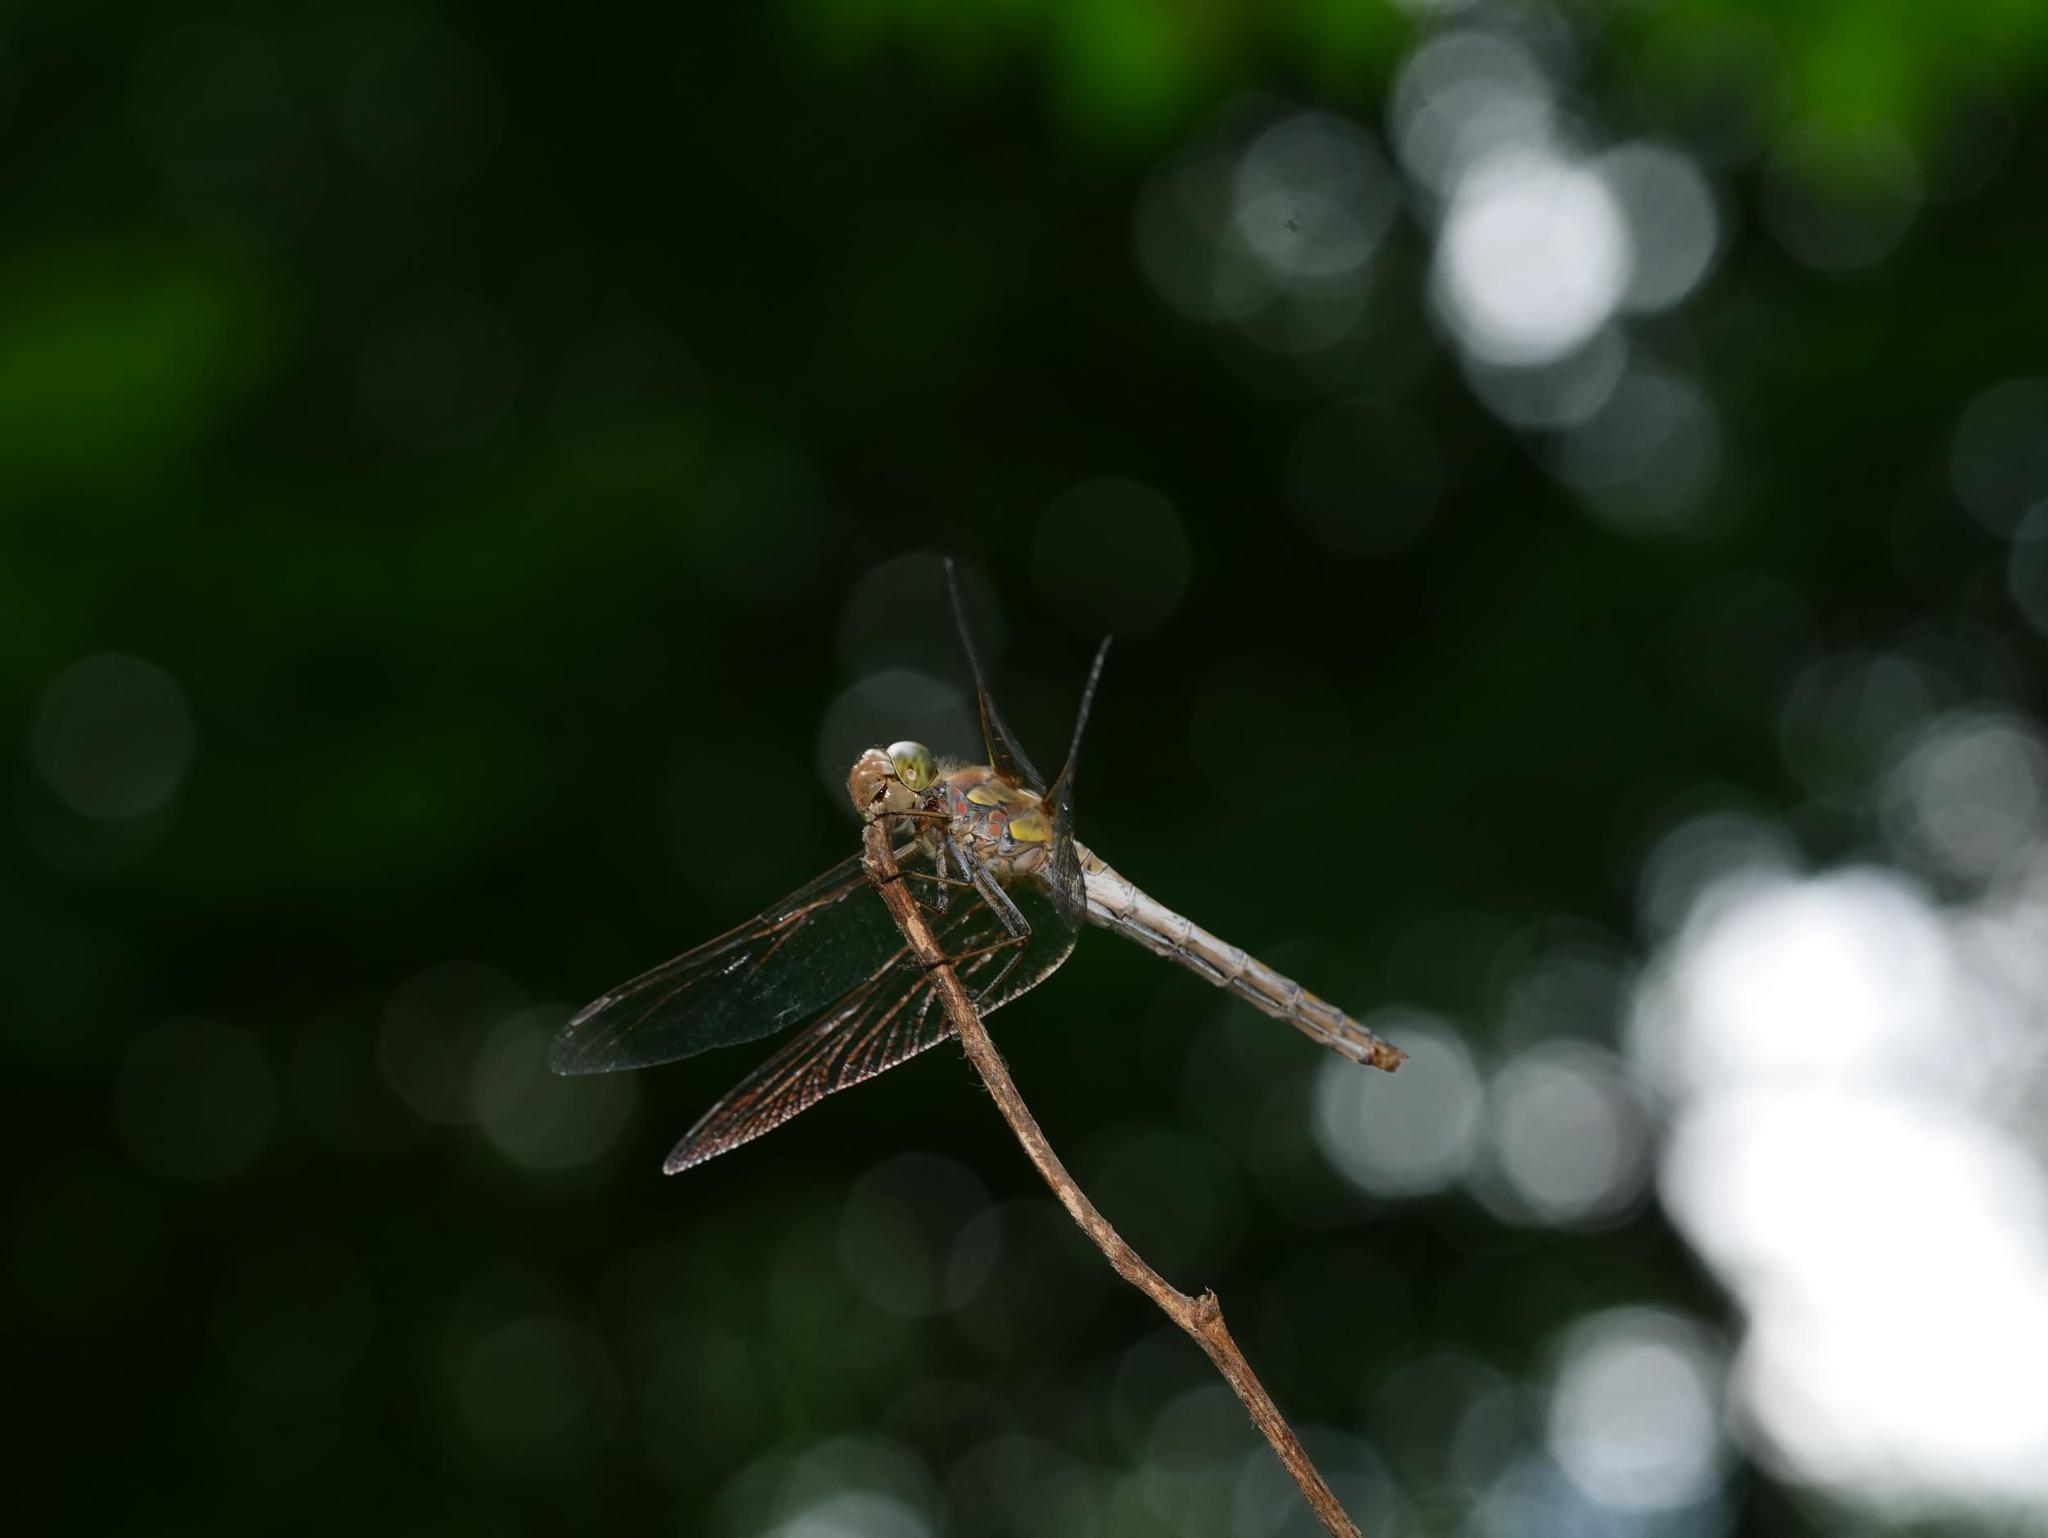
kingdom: Animalia
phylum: Arthropoda
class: Insecta
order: Odonata
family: Libellulidae
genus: Sympetrum
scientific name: Sympetrum striolatum
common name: Common darter
